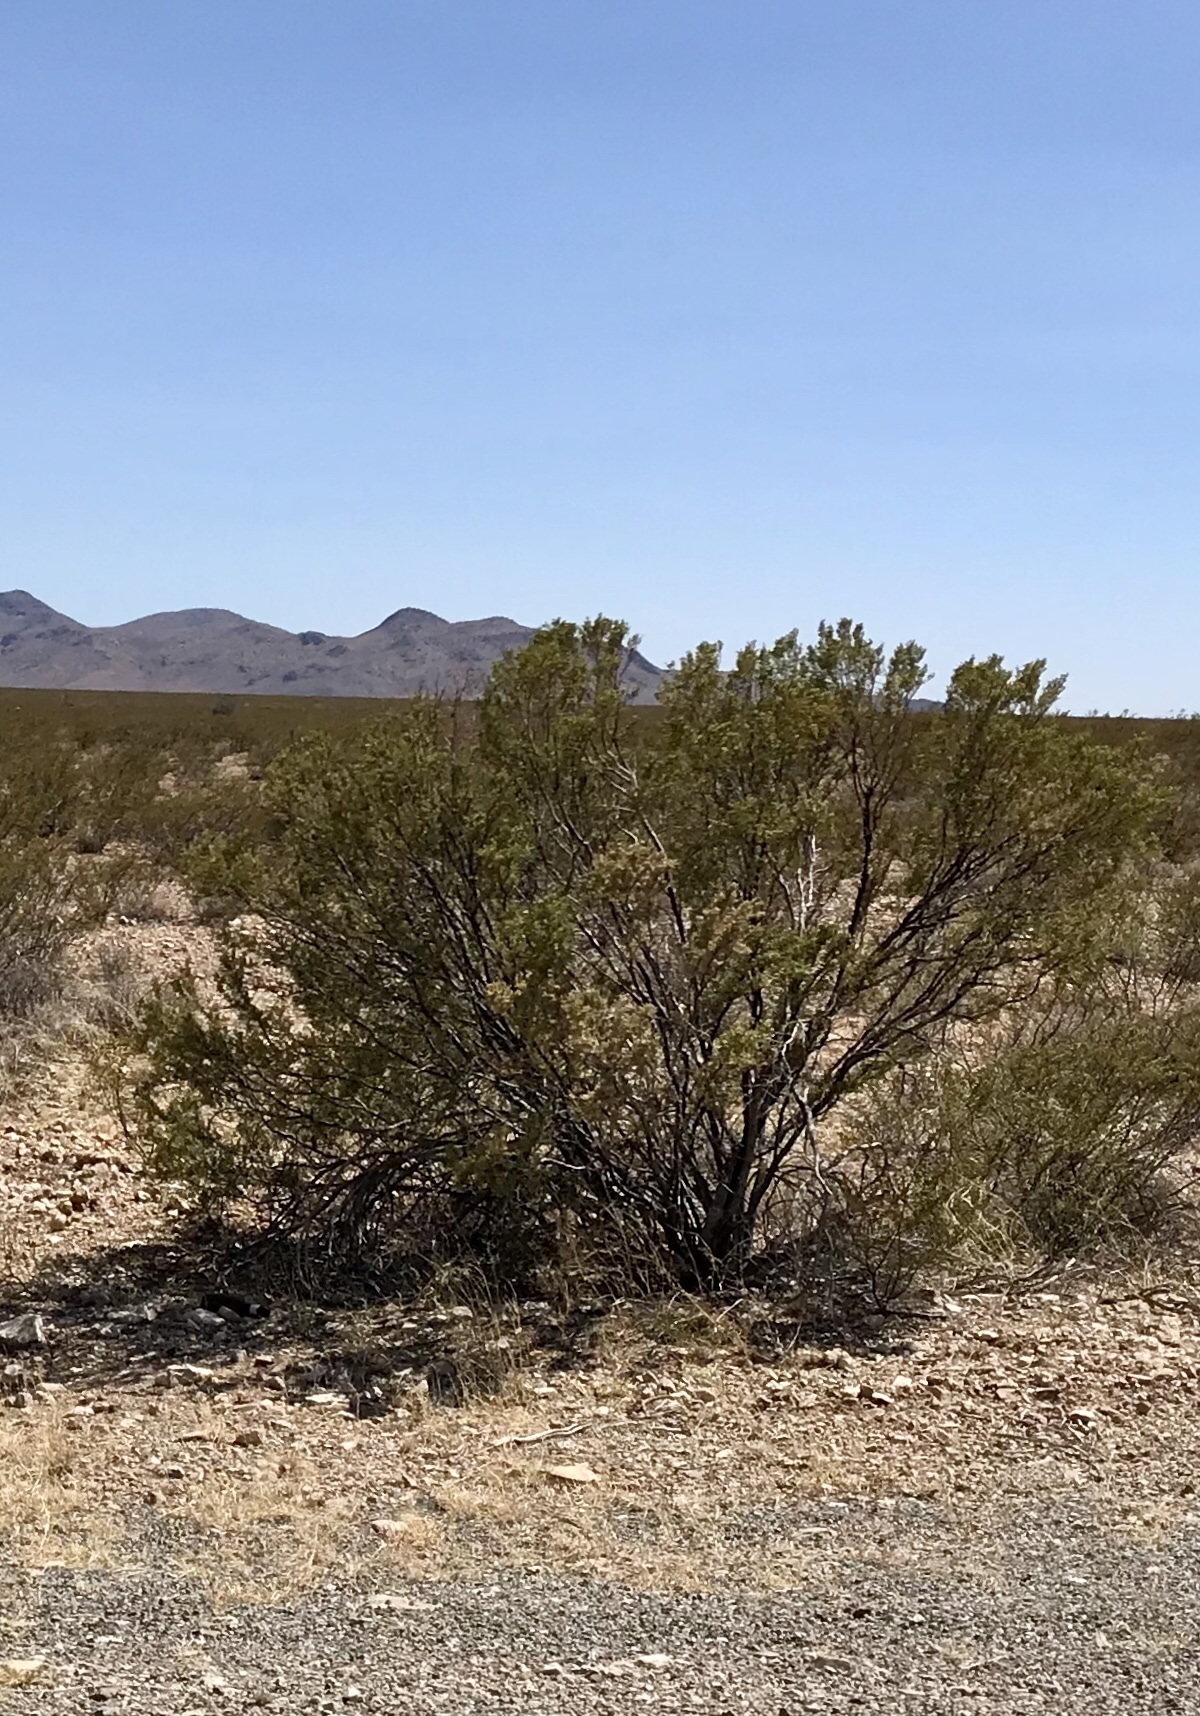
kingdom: Plantae
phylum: Tracheophyta
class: Magnoliopsida
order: Zygophyllales
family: Zygophyllaceae
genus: Larrea
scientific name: Larrea tridentata
